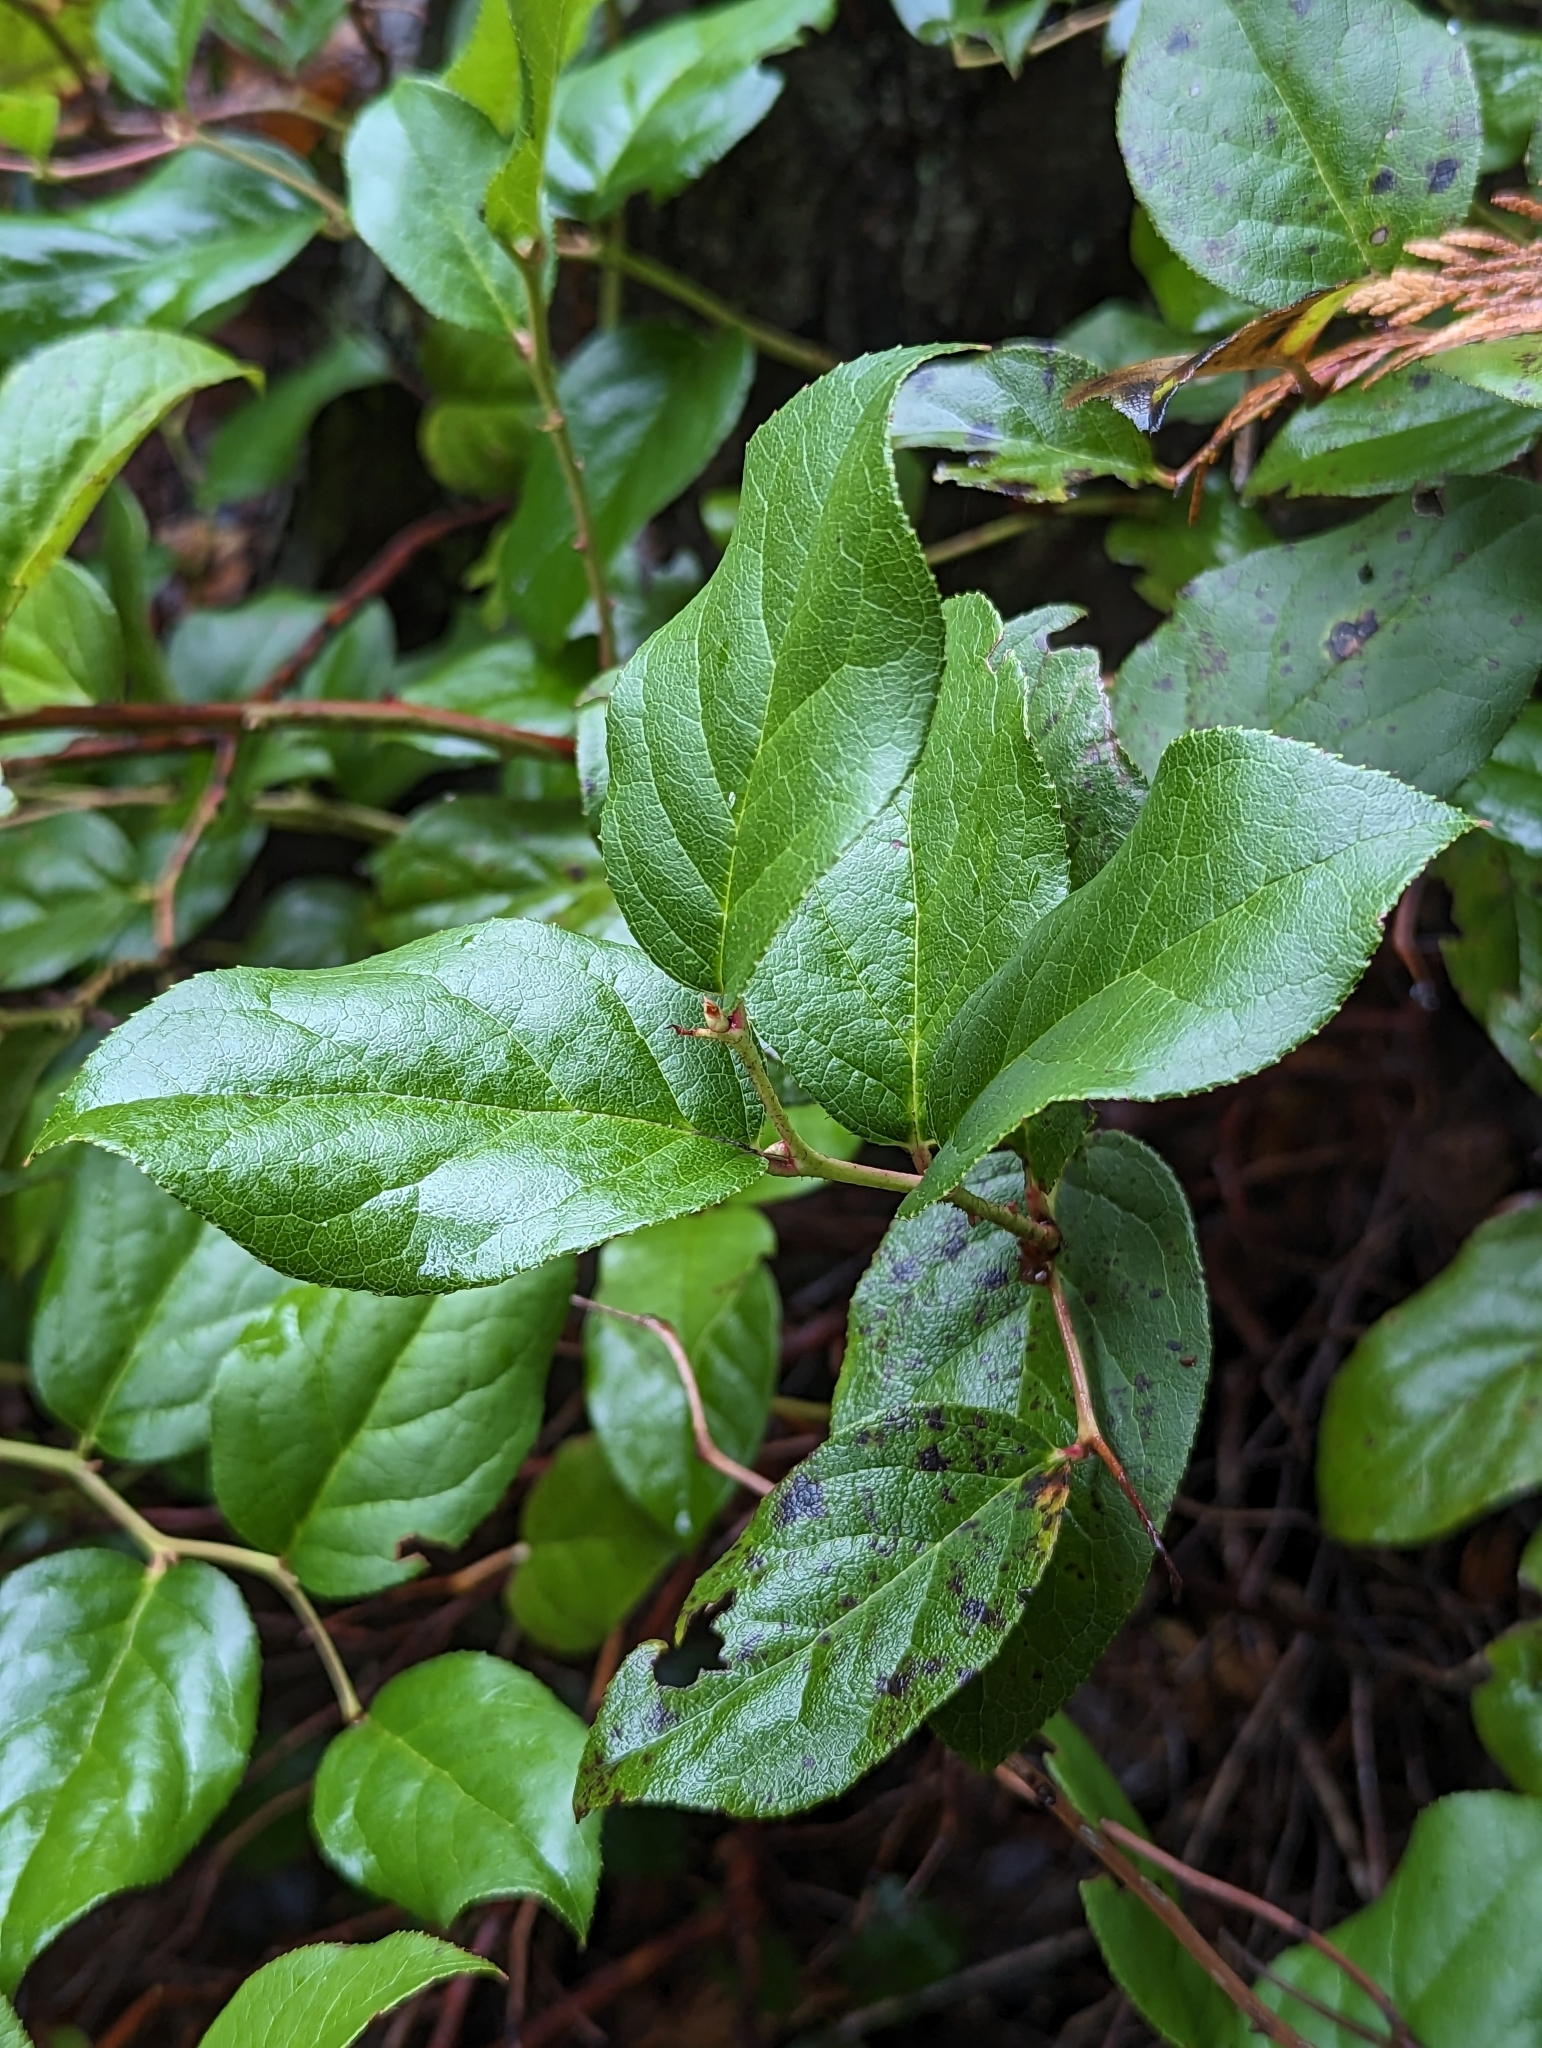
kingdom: Plantae
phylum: Tracheophyta
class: Magnoliopsida
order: Ericales
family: Ericaceae
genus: Gaultheria
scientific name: Gaultheria shallon
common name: Shallon
